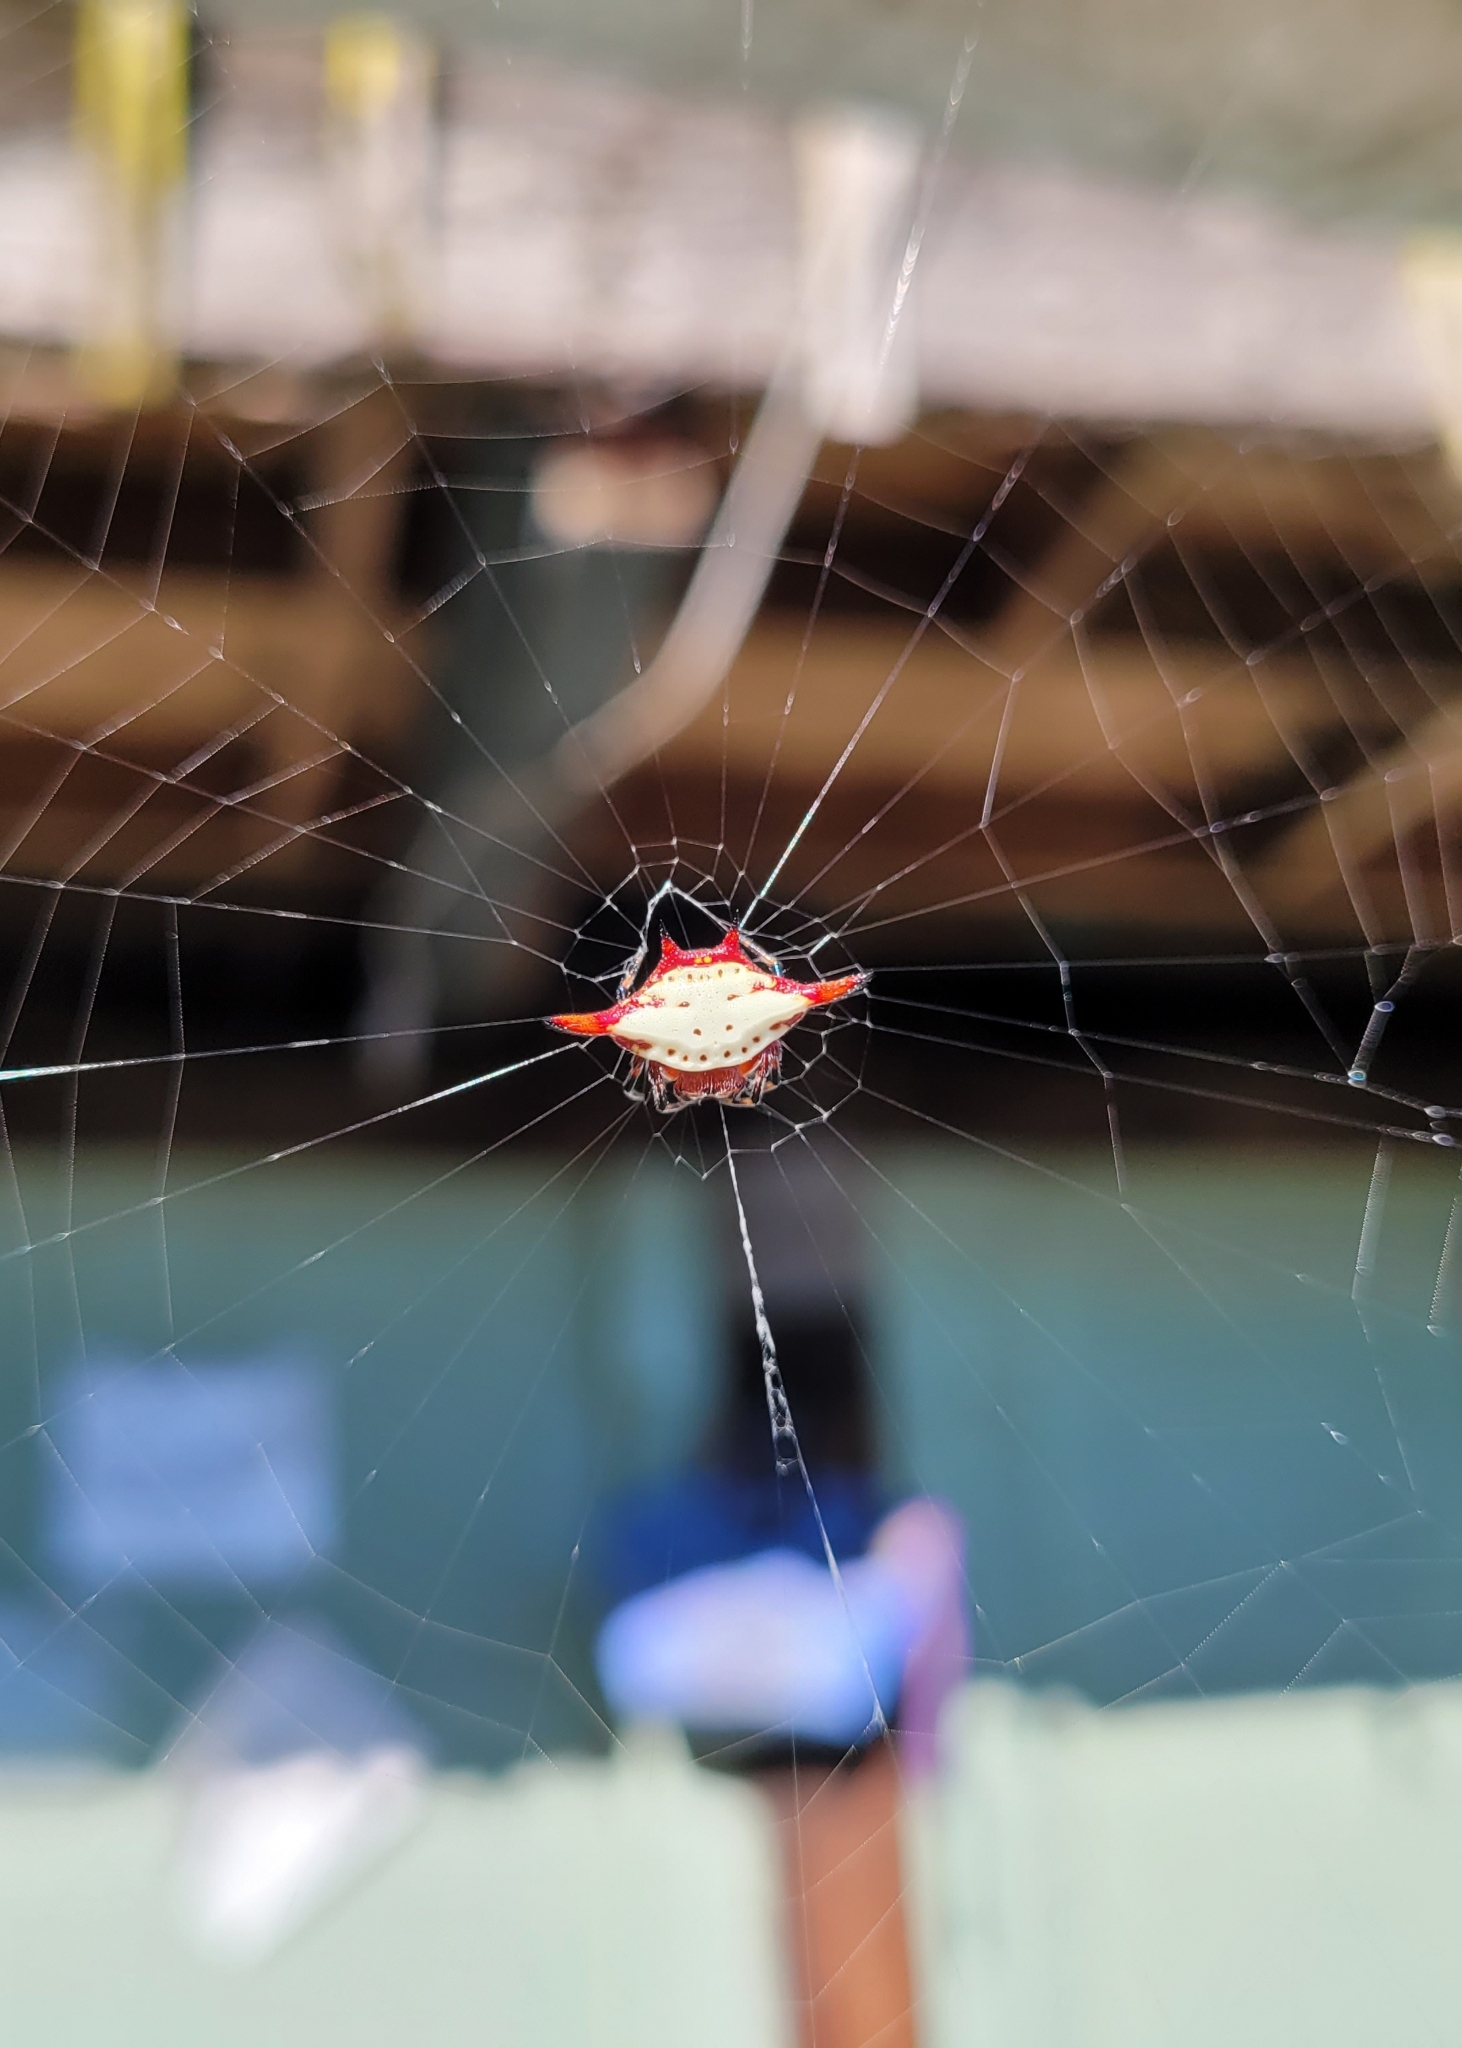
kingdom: Animalia
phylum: Arthropoda
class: Arachnida
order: Araneae
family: Araneidae
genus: Gasteracantha
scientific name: Gasteracantha cancriformis
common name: Orb weavers
